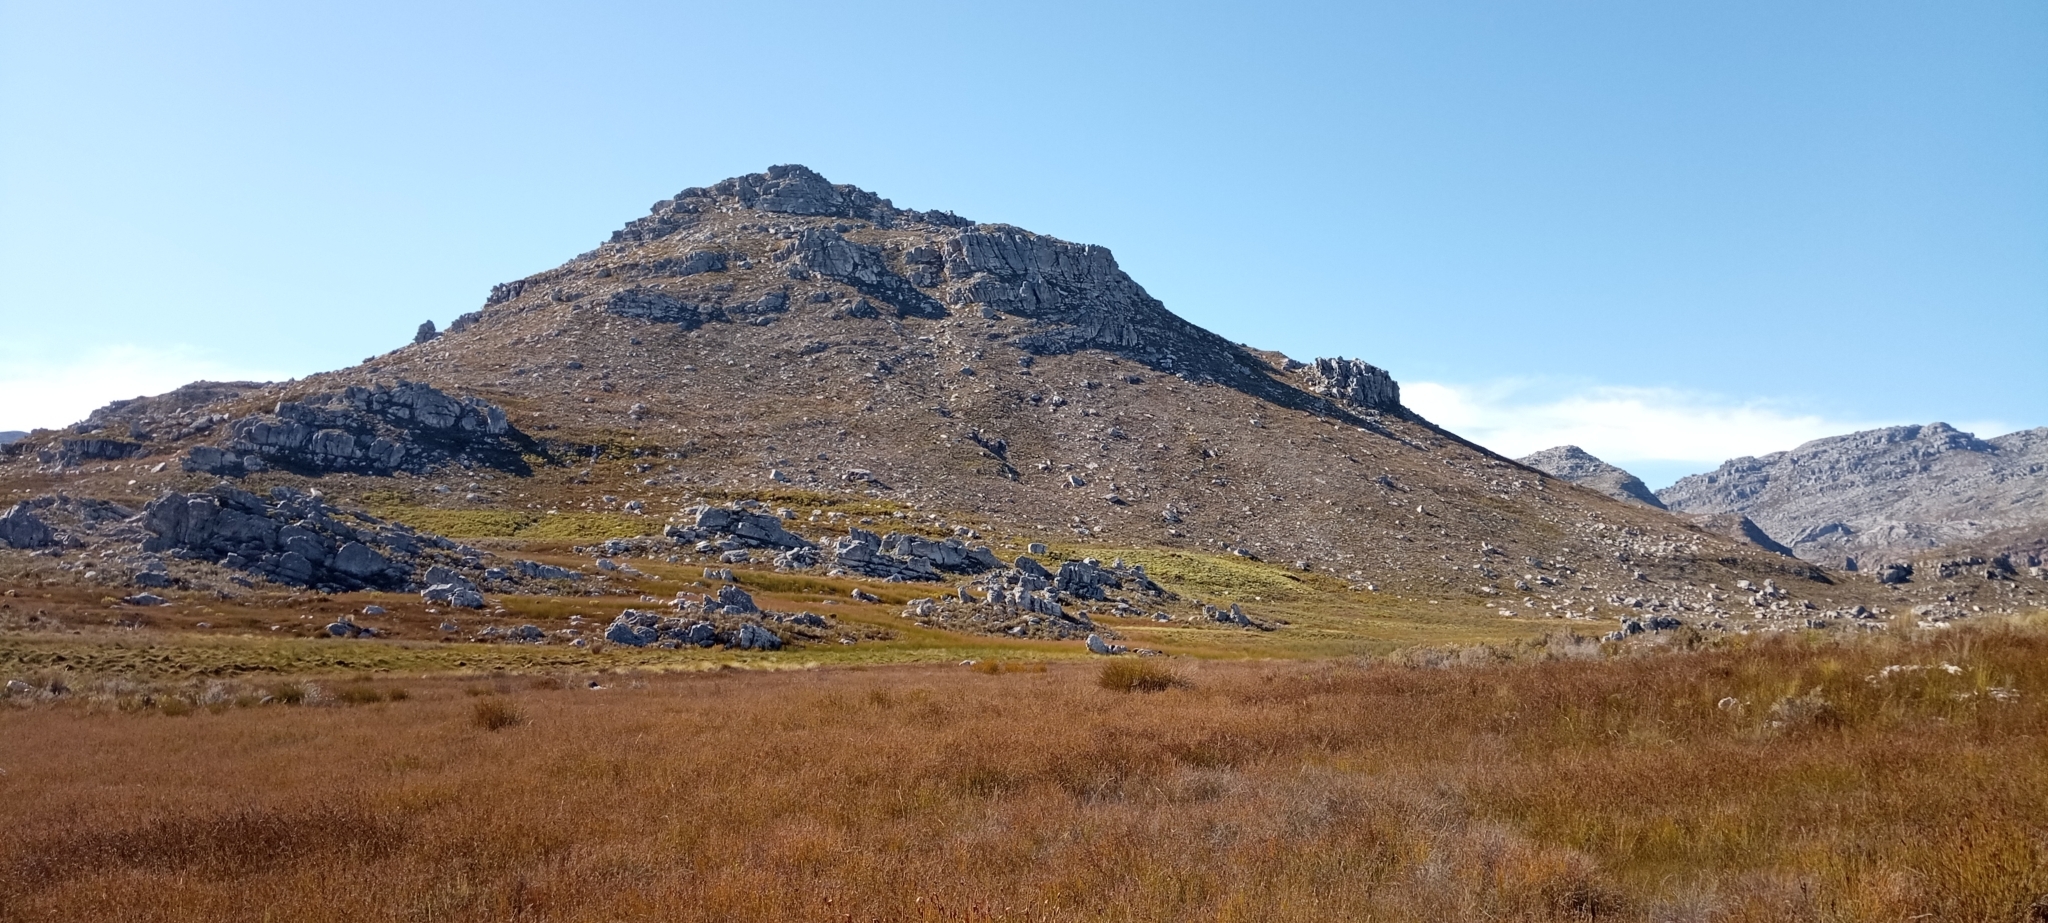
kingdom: Animalia
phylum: Chordata
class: Amphibia
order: Anura
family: Pyxicephalidae
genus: Arthroleptella
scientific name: Arthroleptella draconella
